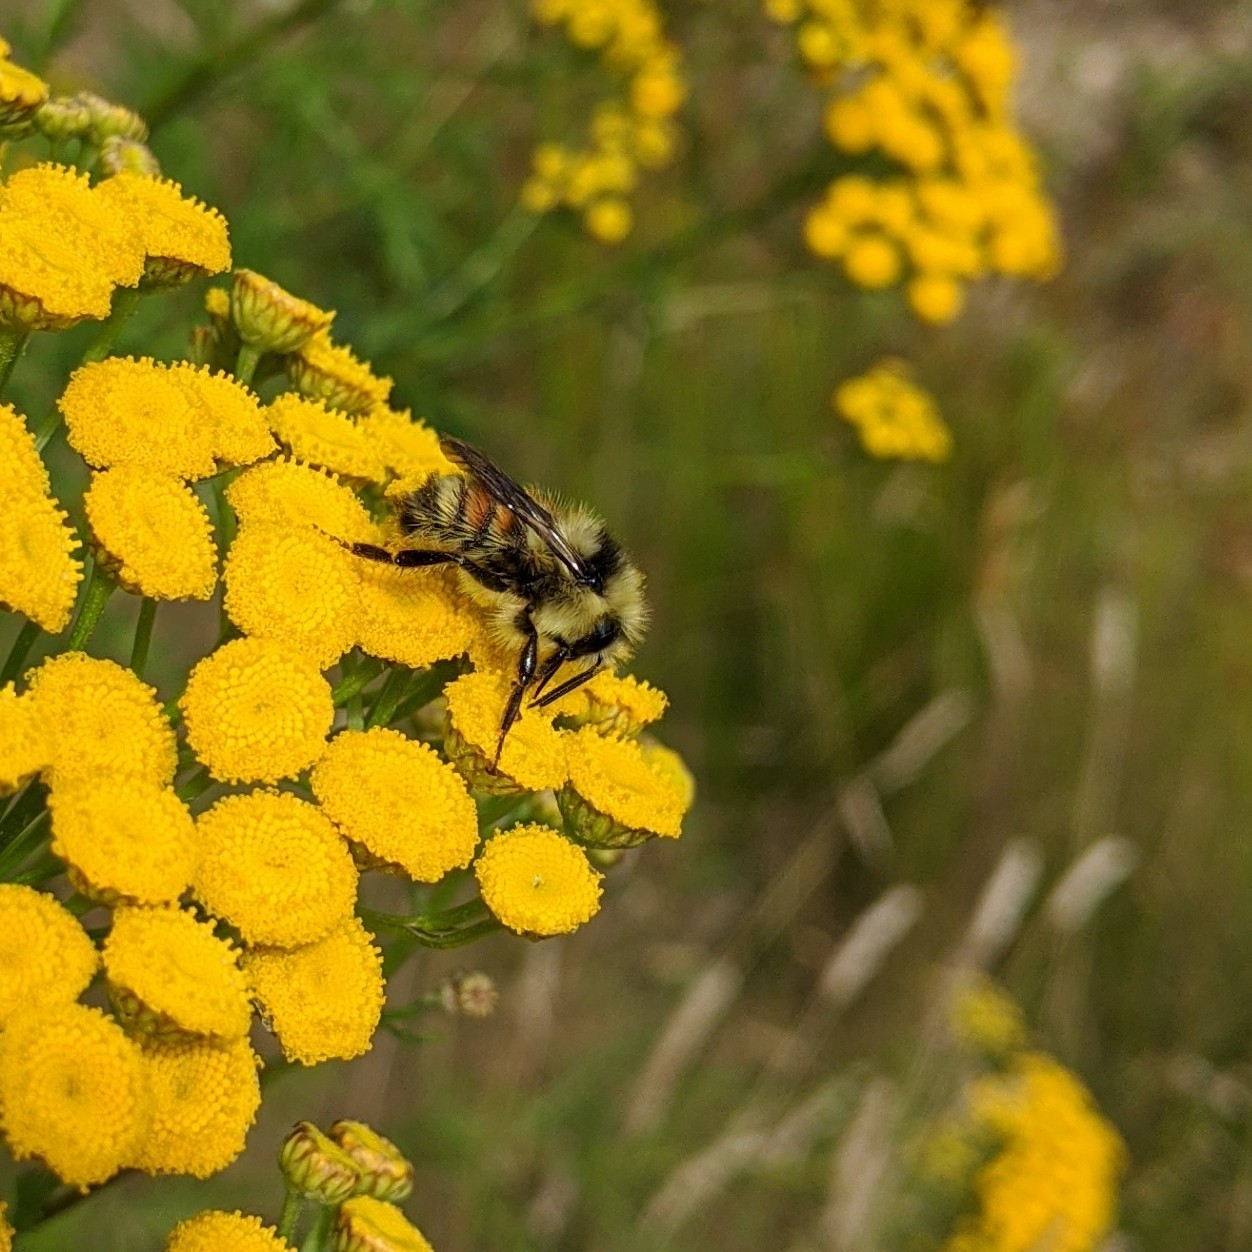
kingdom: Animalia
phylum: Arthropoda
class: Insecta
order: Hymenoptera
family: Apidae
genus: Bombus
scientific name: Bombus vancouverensis
